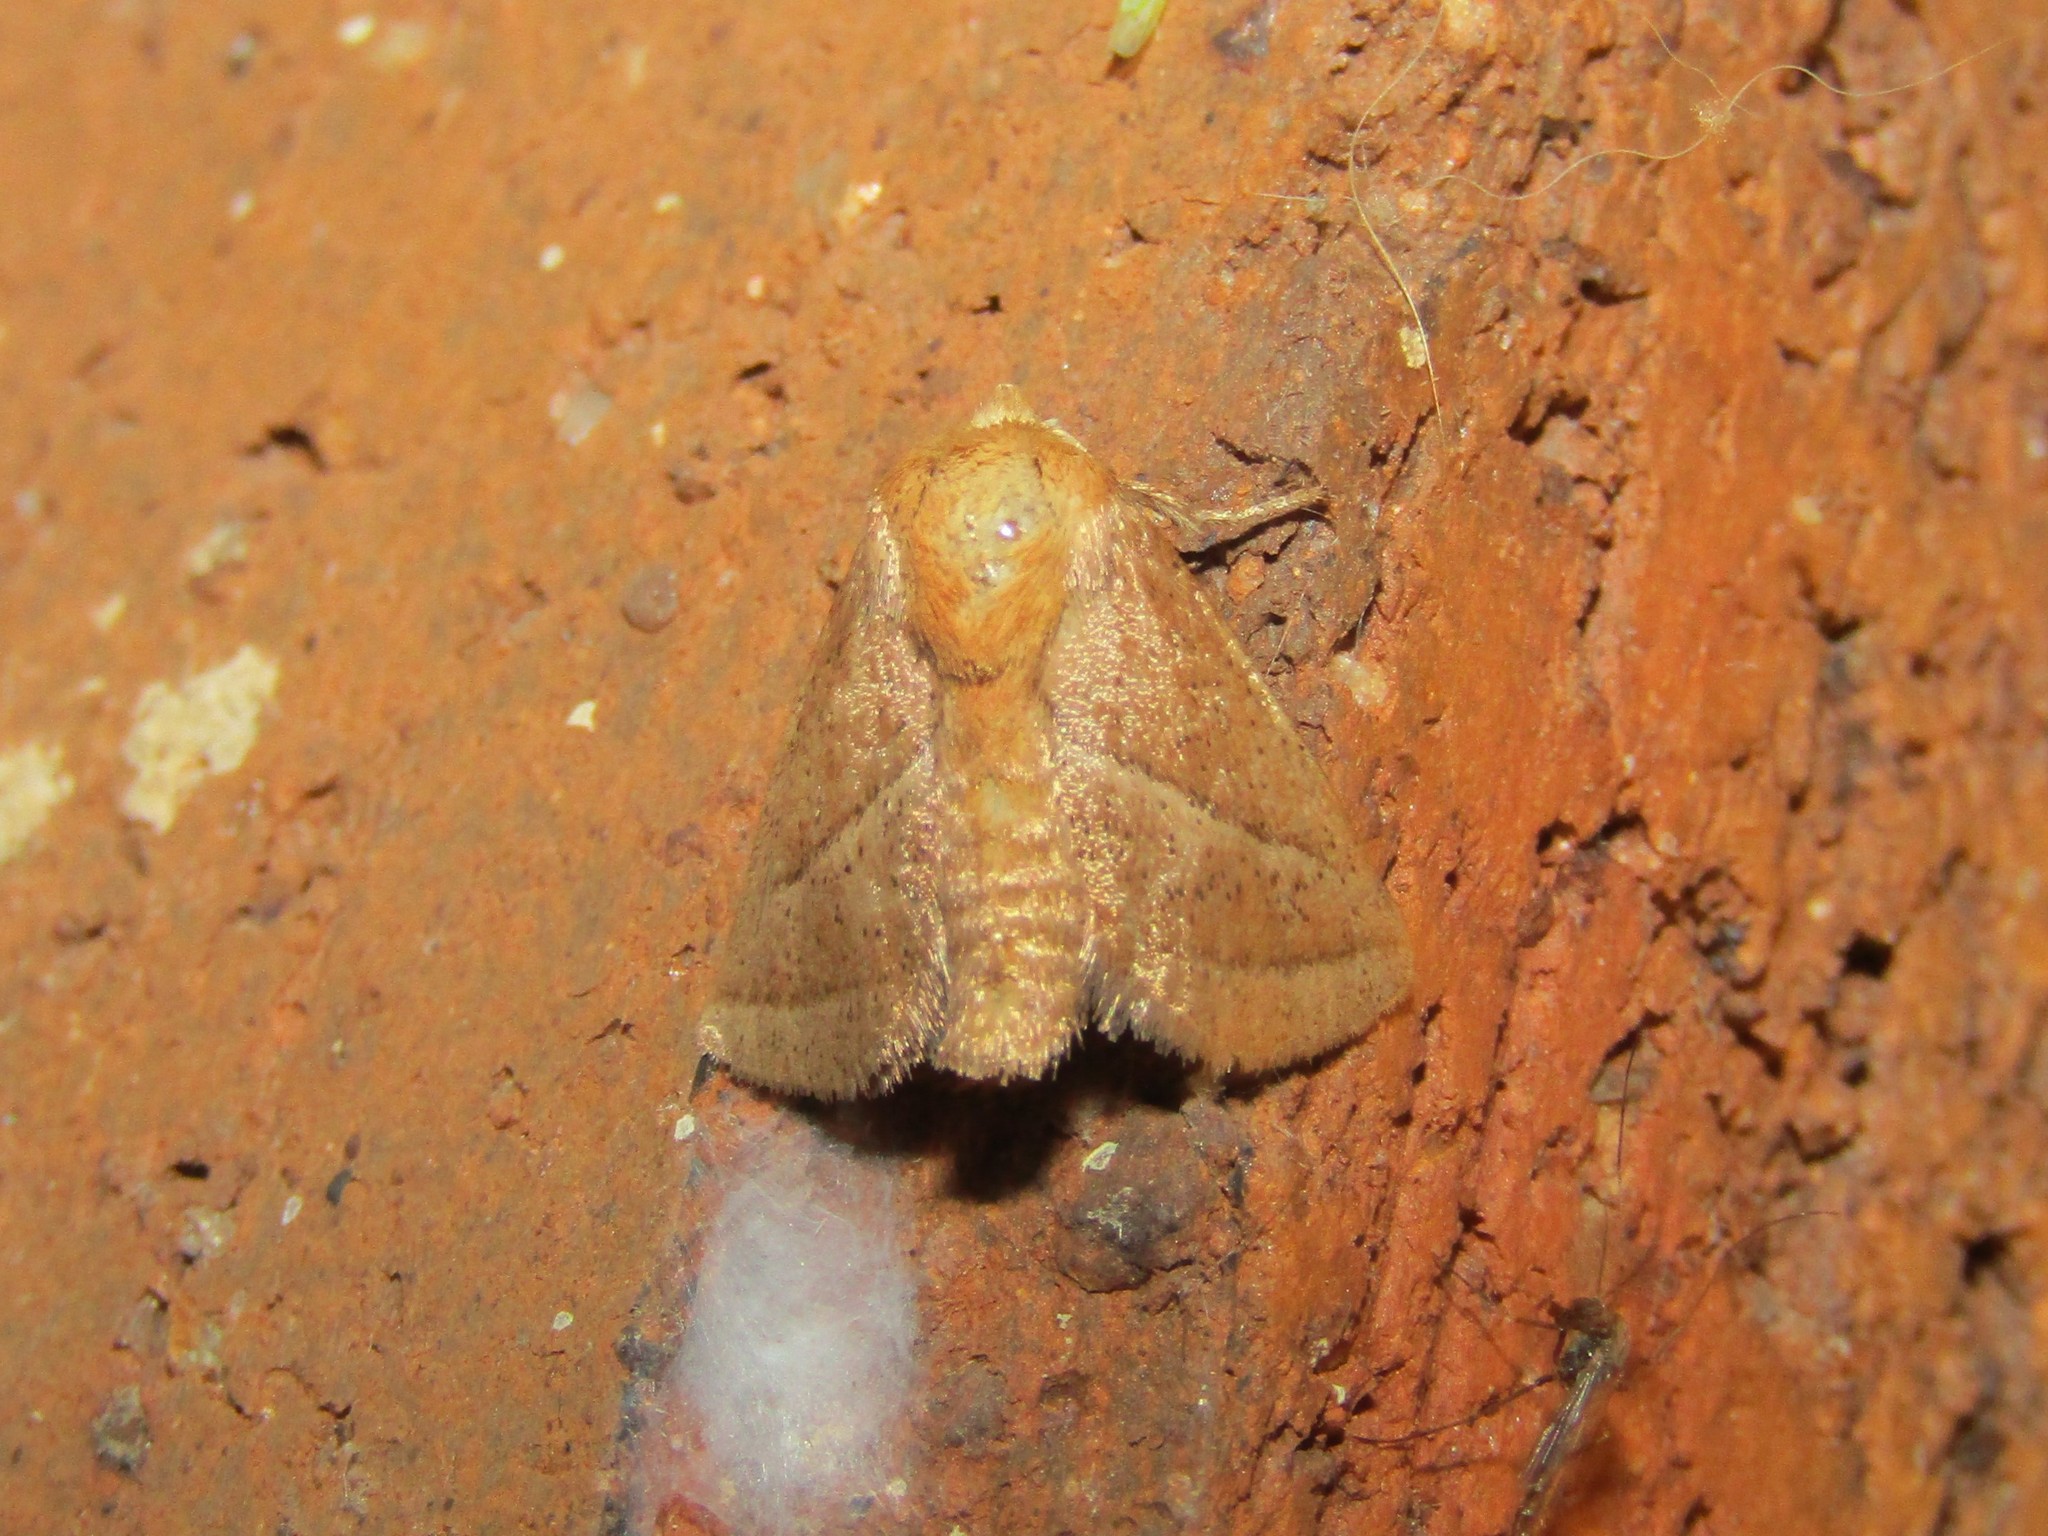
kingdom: Animalia
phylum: Arthropoda
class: Insecta
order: Lepidoptera
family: Limacodidae
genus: Natada
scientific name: Natada nasoni
